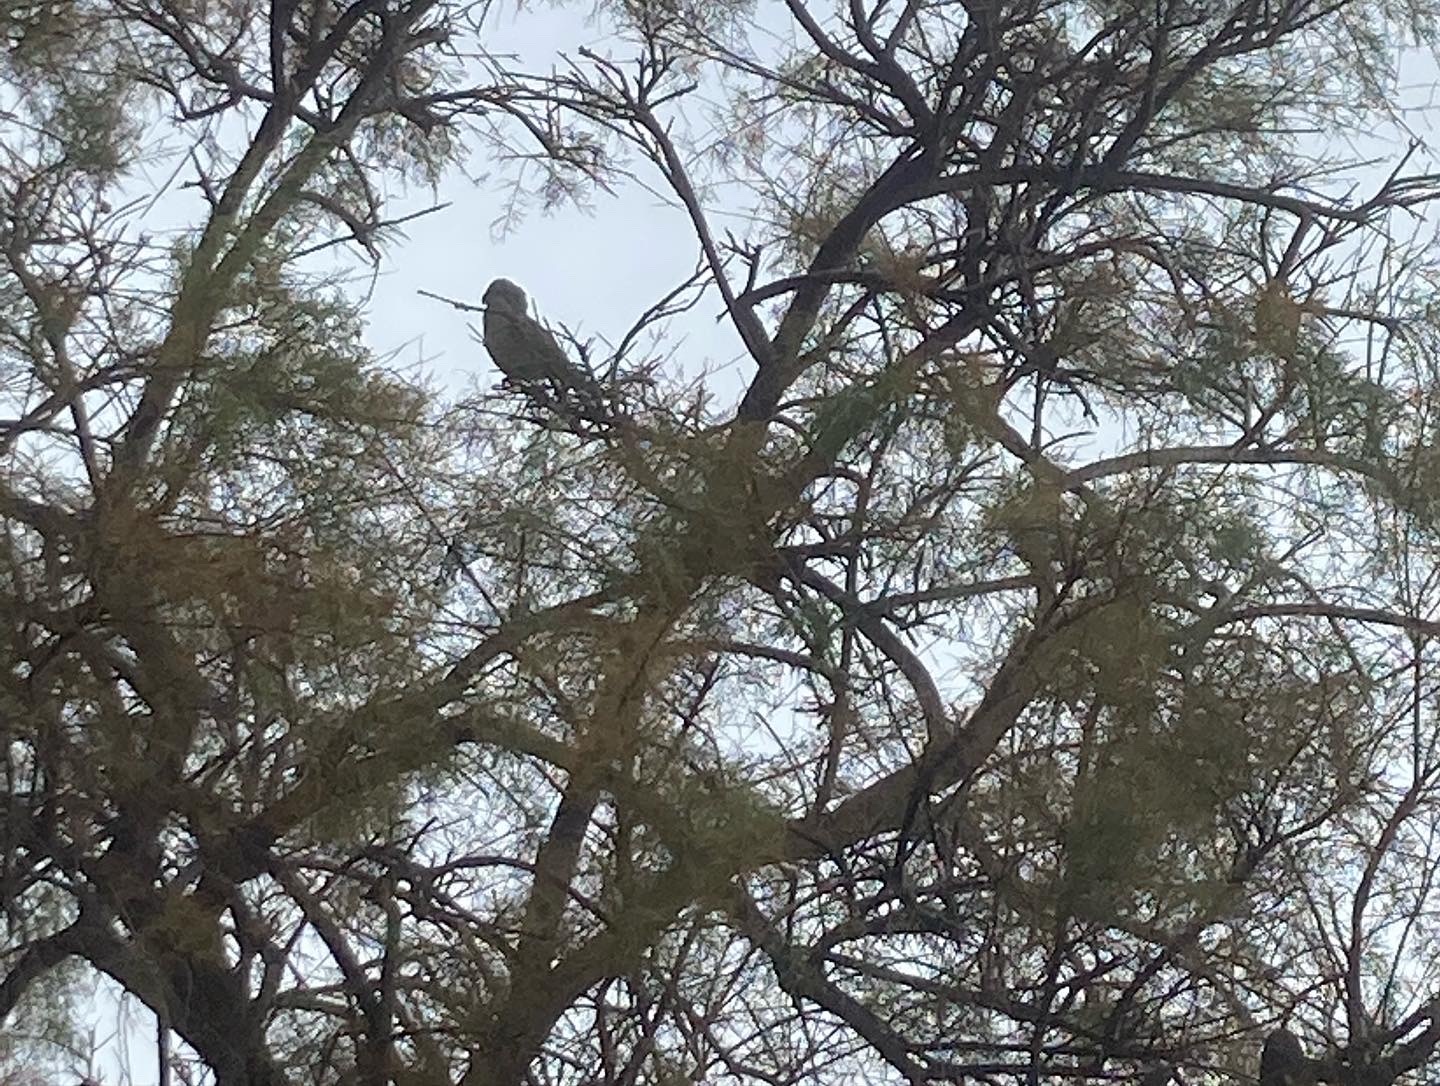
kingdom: Animalia
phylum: Chordata
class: Aves
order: Psittaciformes
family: Psittacidae
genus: Myiopsitta
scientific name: Myiopsitta monachus
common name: Monk parakeet
